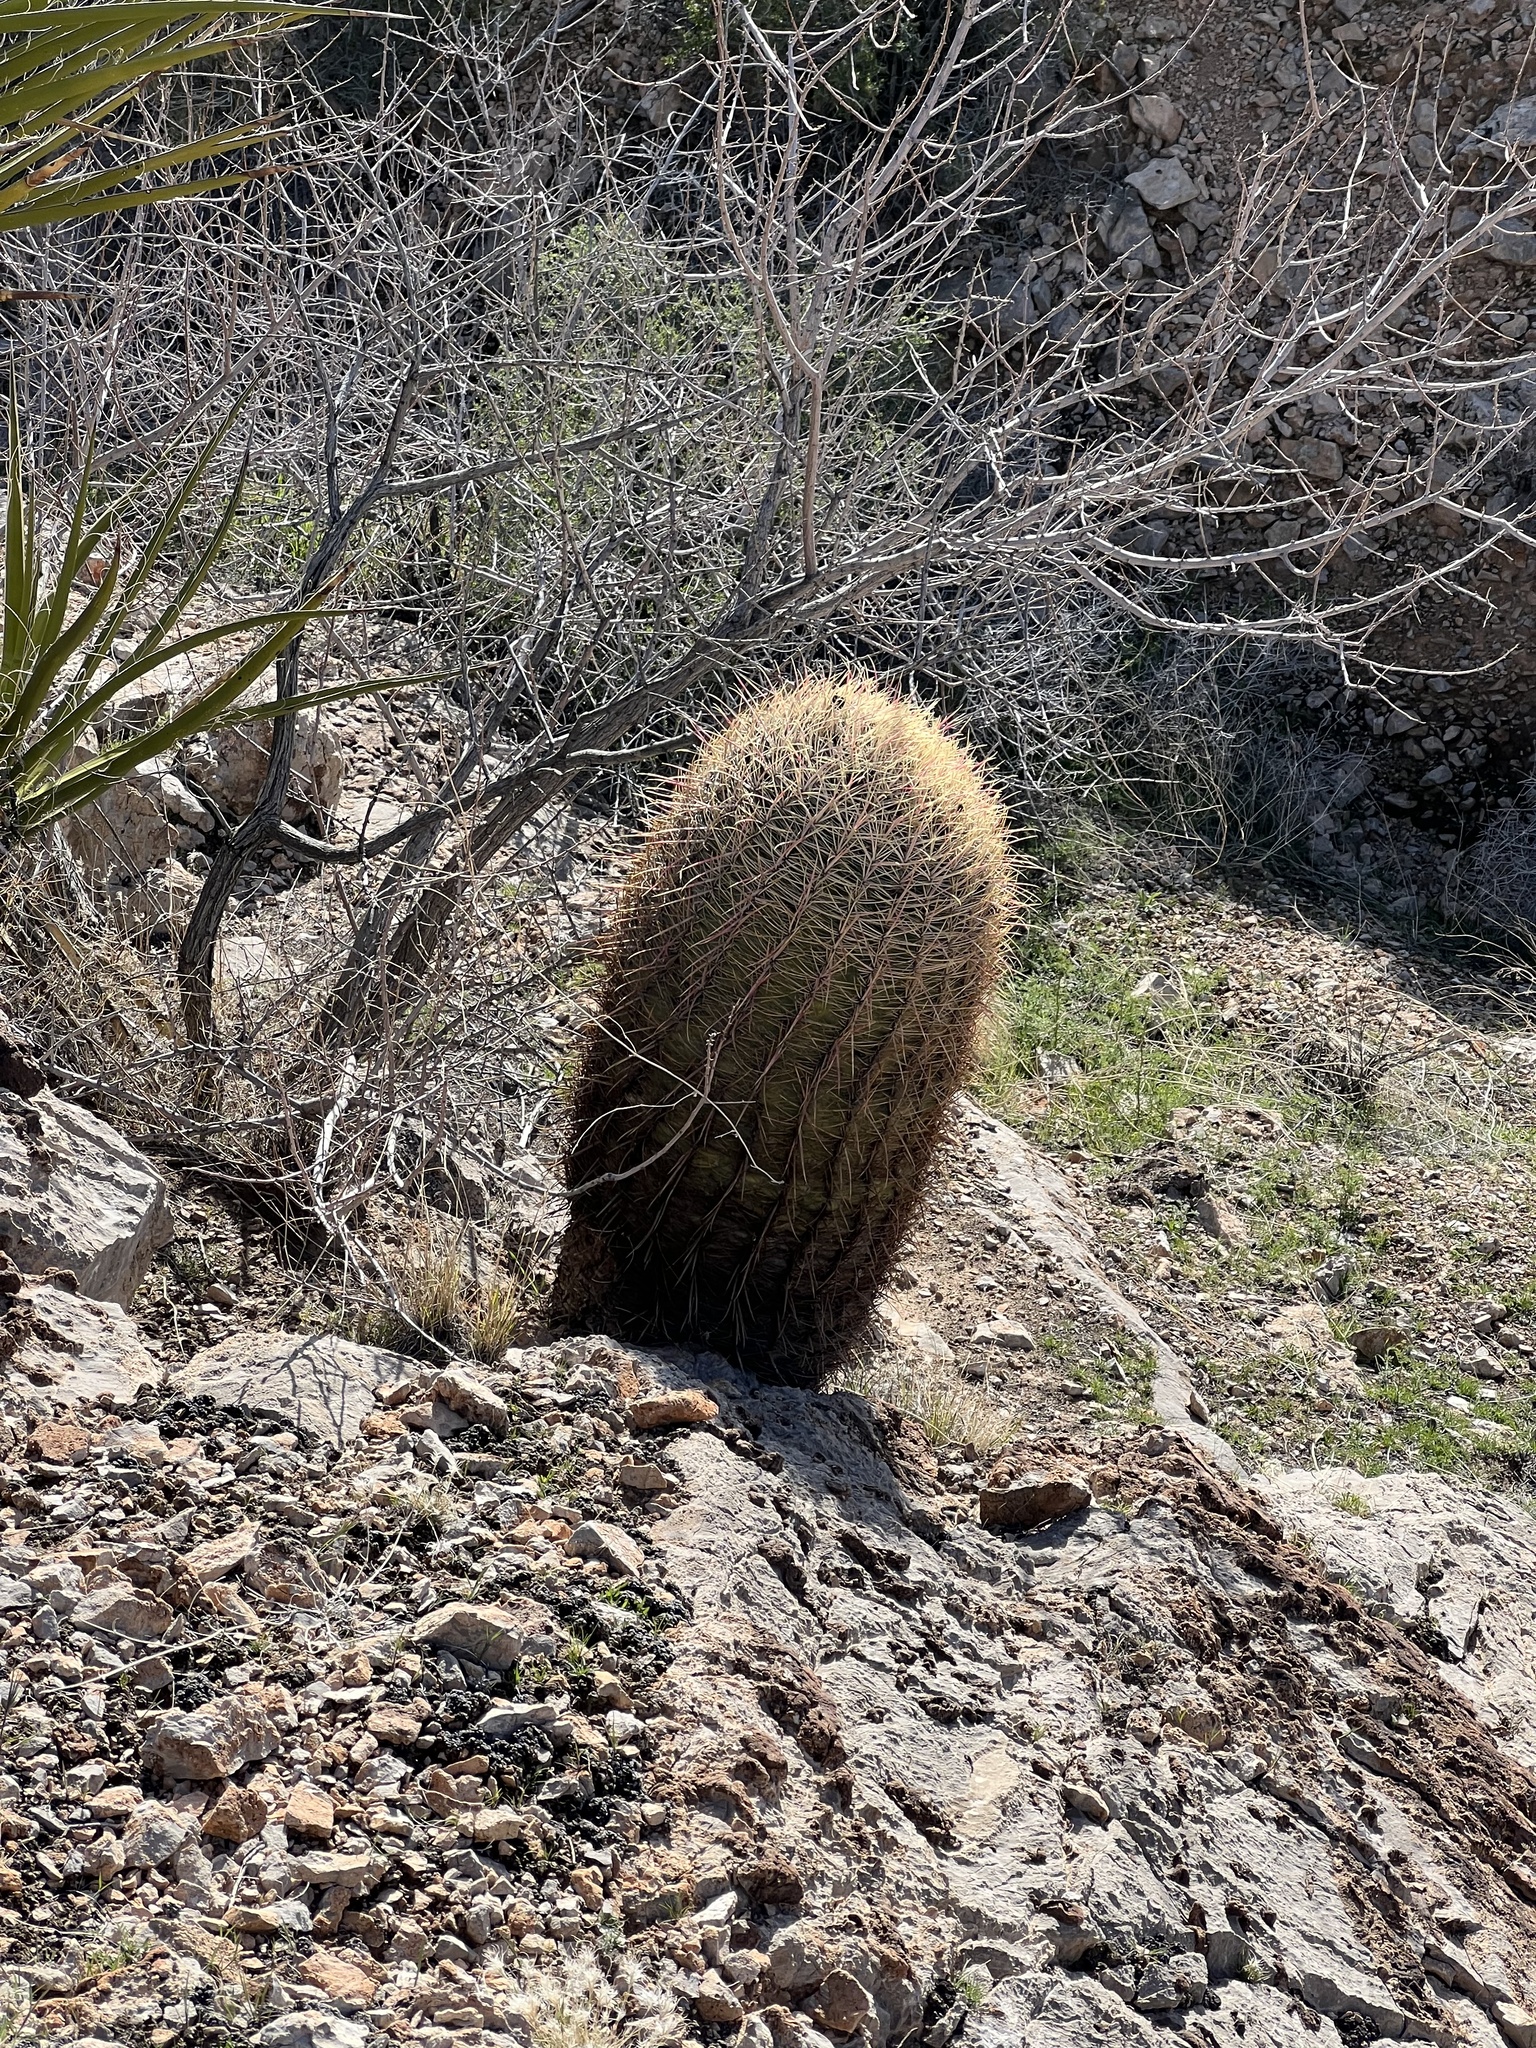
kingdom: Plantae
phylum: Tracheophyta
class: Magnoliopsida
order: Caryophyllales
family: Cactaceae
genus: Ferocactus
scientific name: Ferocactus cylindraceus
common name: California barrel cactus
